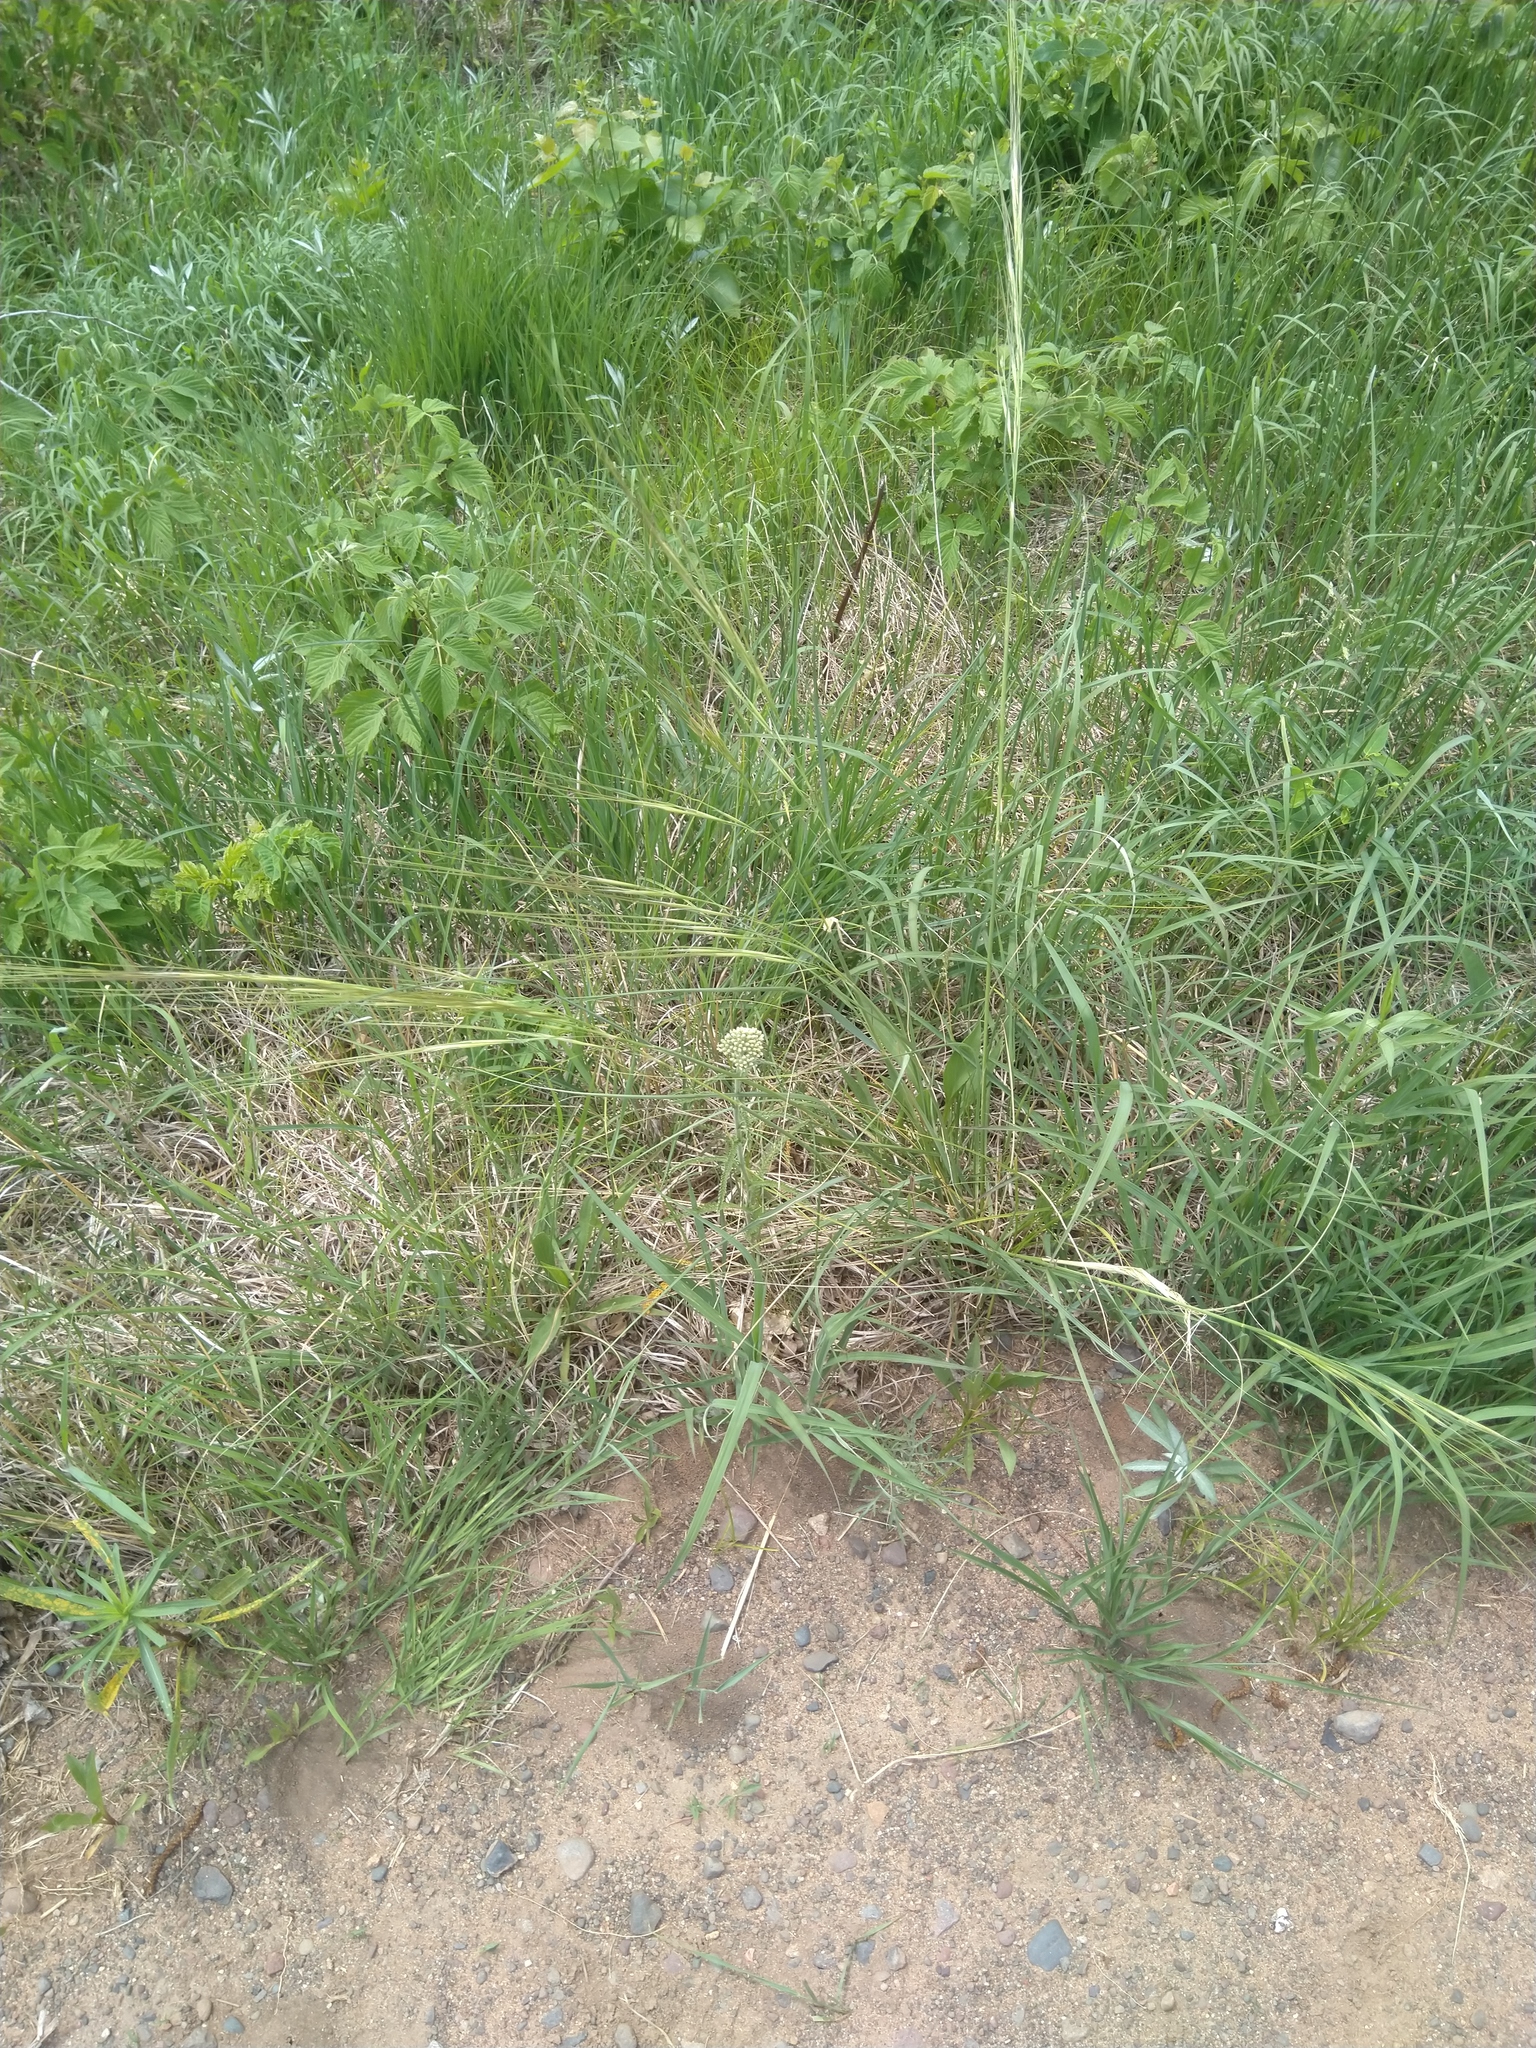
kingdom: Plantae
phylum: Tracheophyta
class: Liliopsida
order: Poales
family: Poaceae
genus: Hesperostipa
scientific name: Hesperostipa spartea
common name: Porcupine grass
